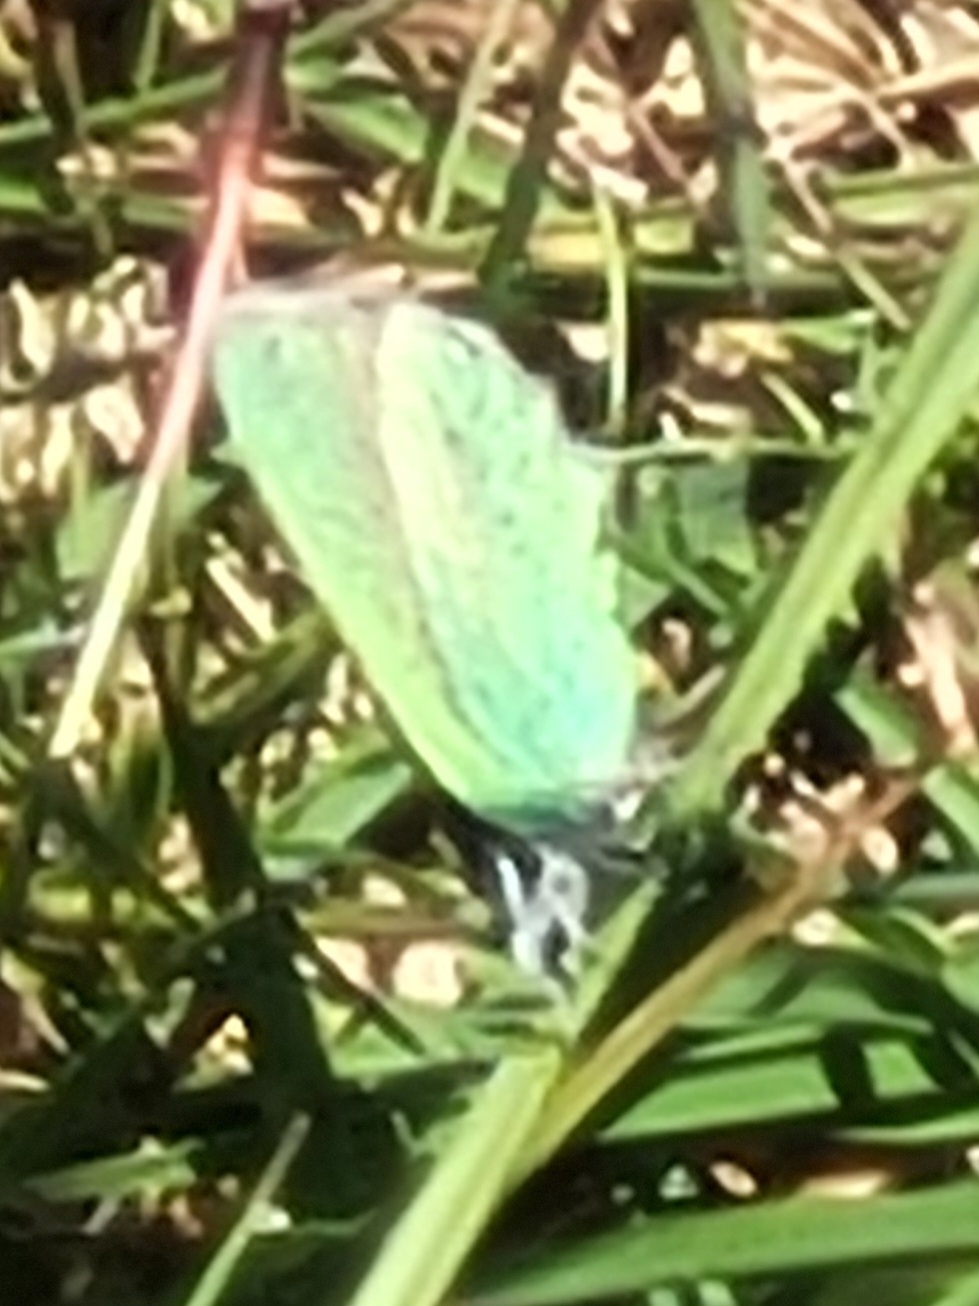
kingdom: Animalia
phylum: Arthropoda
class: Insecta
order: Lepidoptera
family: Lycaenidae
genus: Callophrys
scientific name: Callophrys rubi
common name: Green hairstreak
